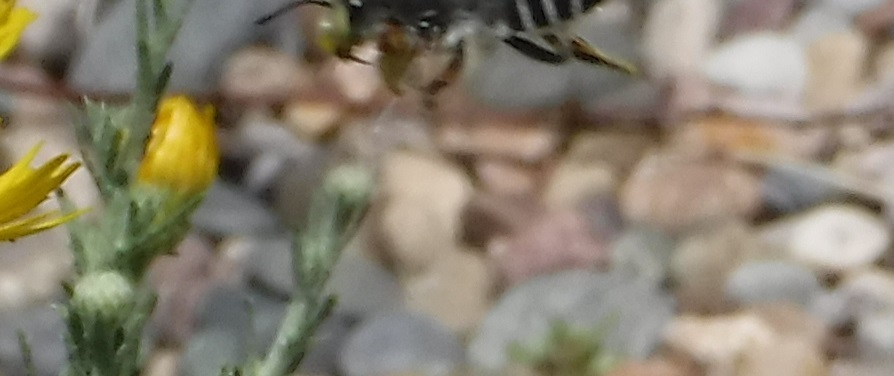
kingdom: Animalia
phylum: Arthropoda
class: Insecta
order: Hymenoptera
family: Megachilidae
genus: Megachile
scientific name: Megachile policaris
